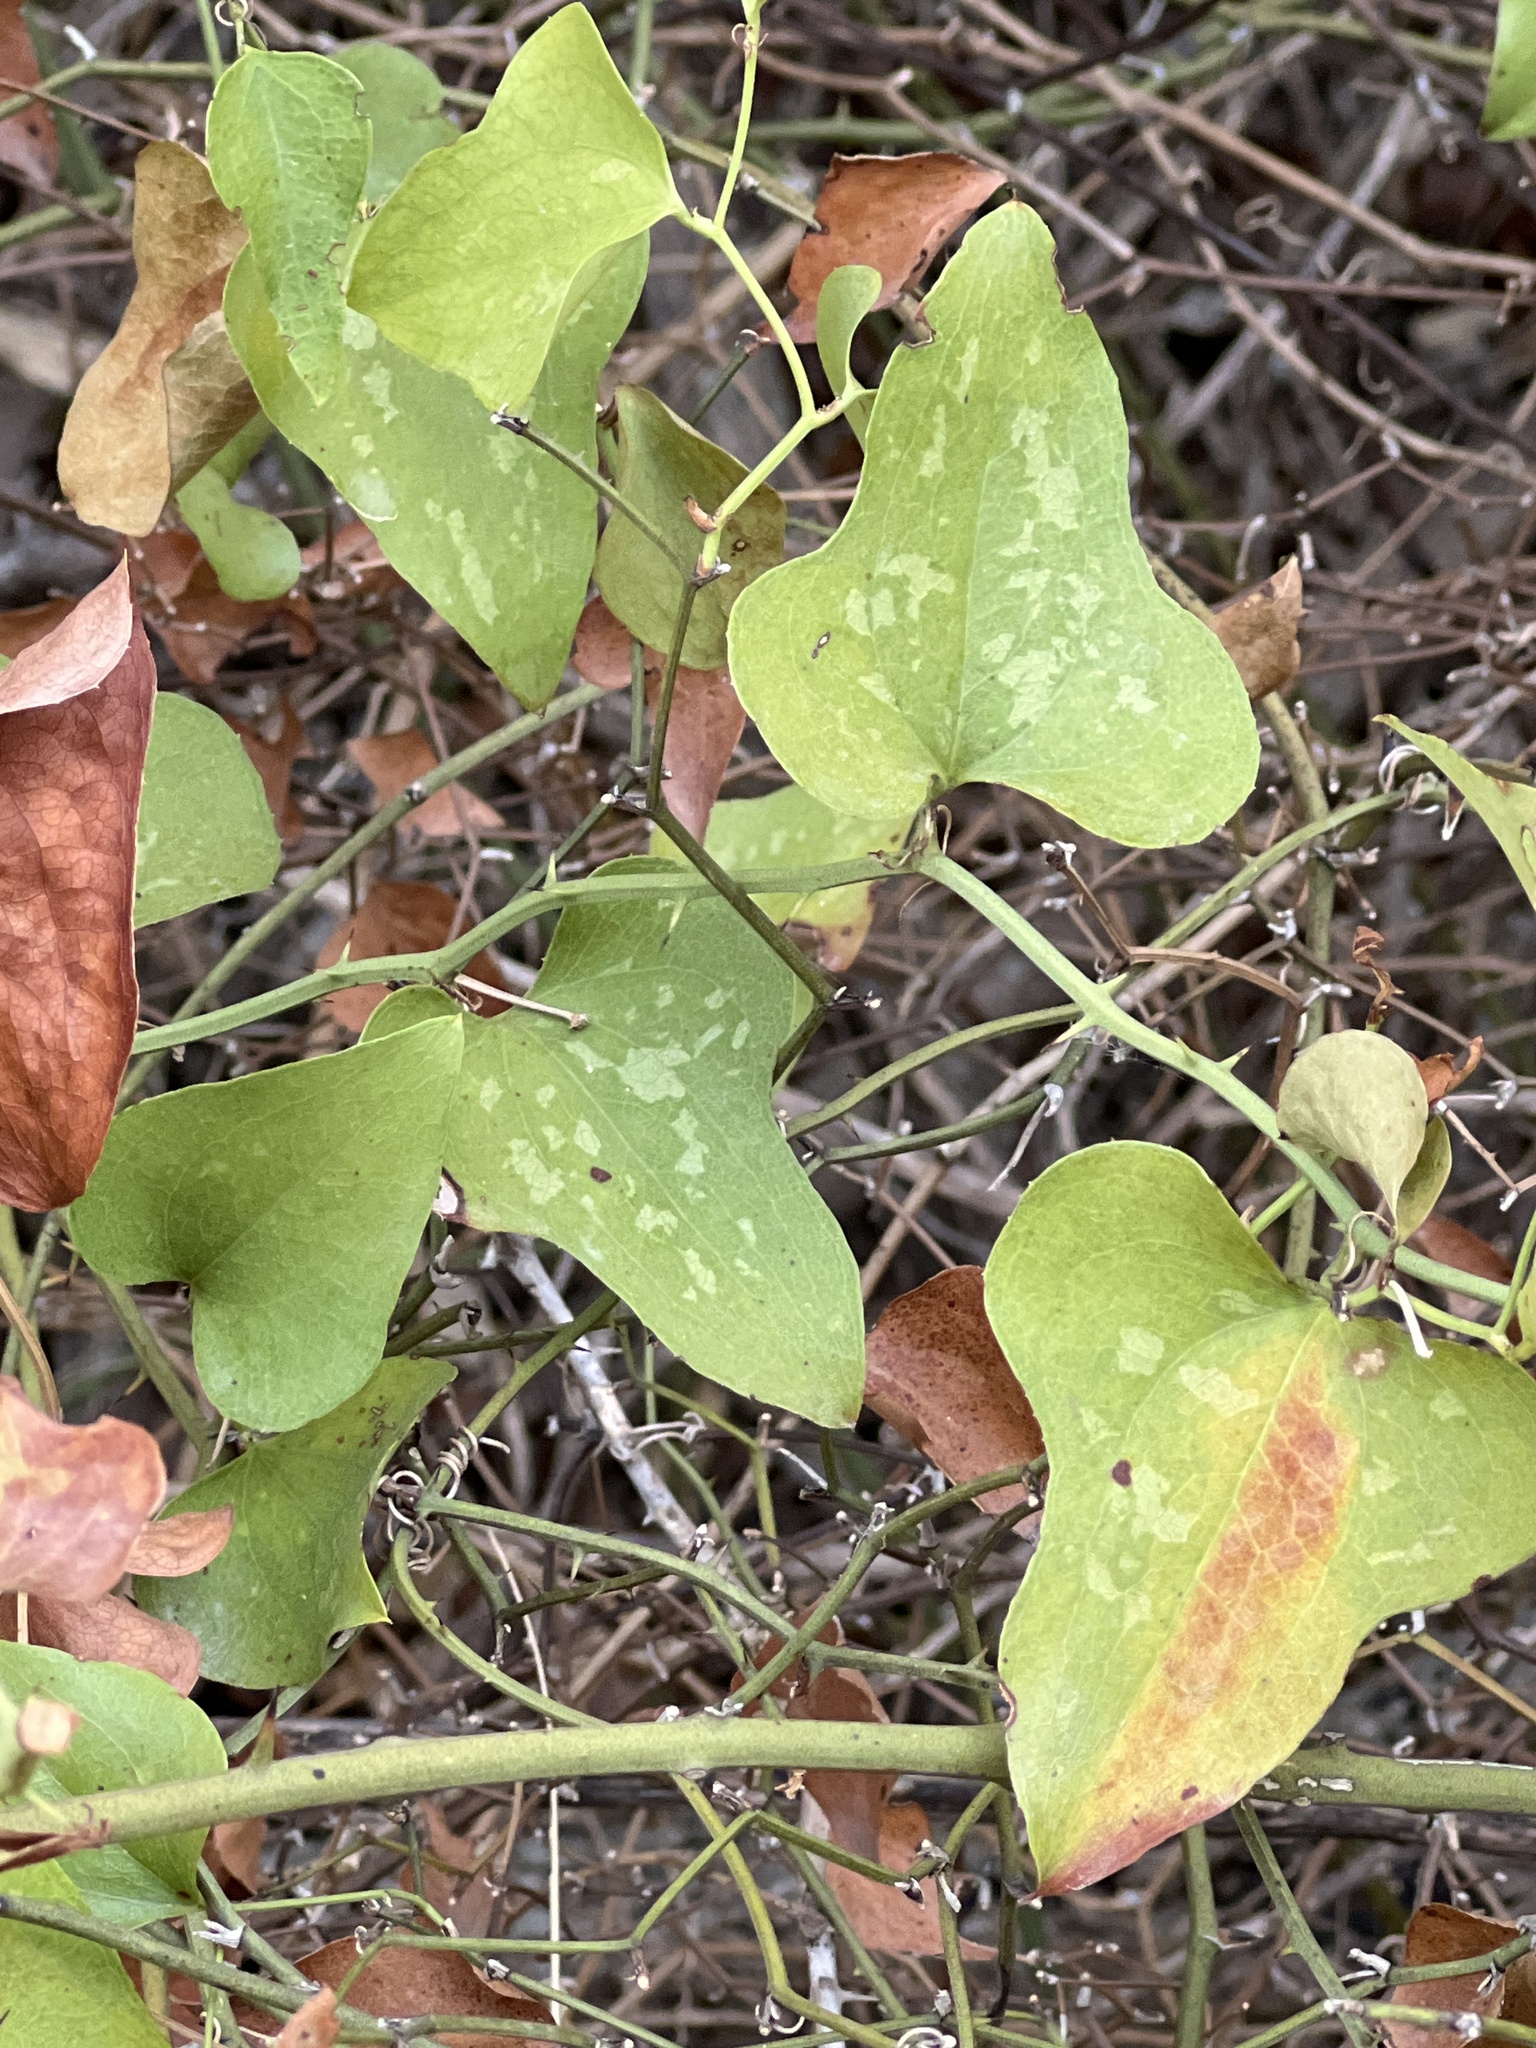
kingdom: Plantae
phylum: Tracheophyta
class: Liliopsida
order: Liliales
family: Smilacaceae
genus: Smilax
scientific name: Smilax bona-nox
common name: Catbrier
